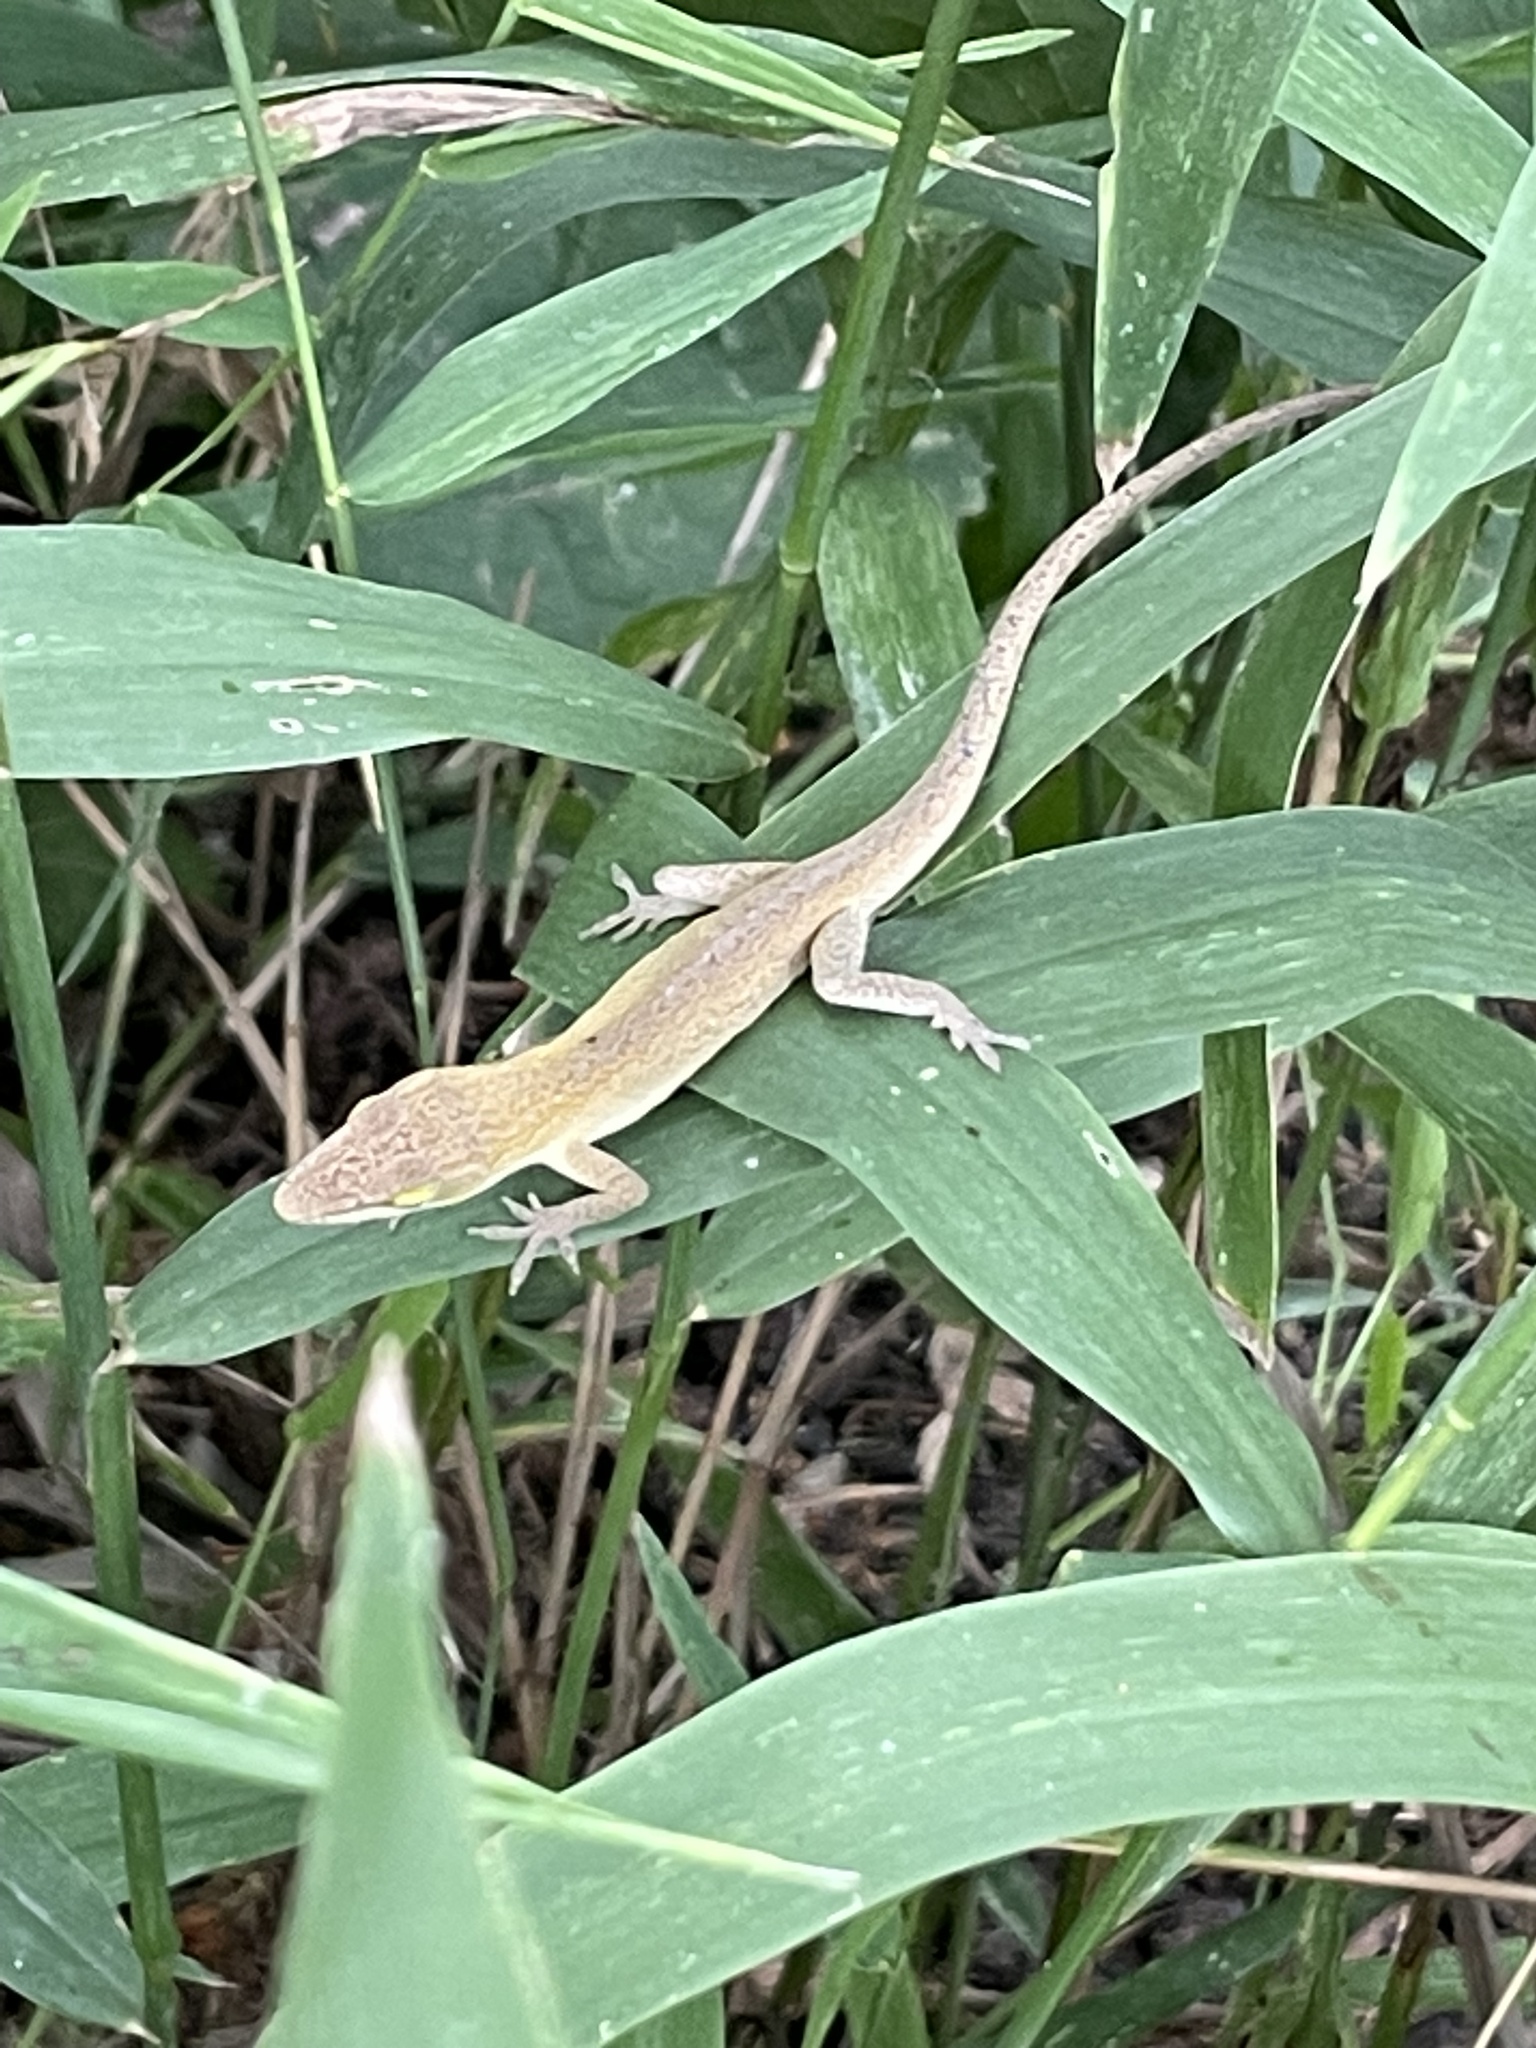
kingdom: Animalia
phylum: Chordata
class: Squamata
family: Dactyloidae
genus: Anolis
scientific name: Anolis carolinensis
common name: Green anole
